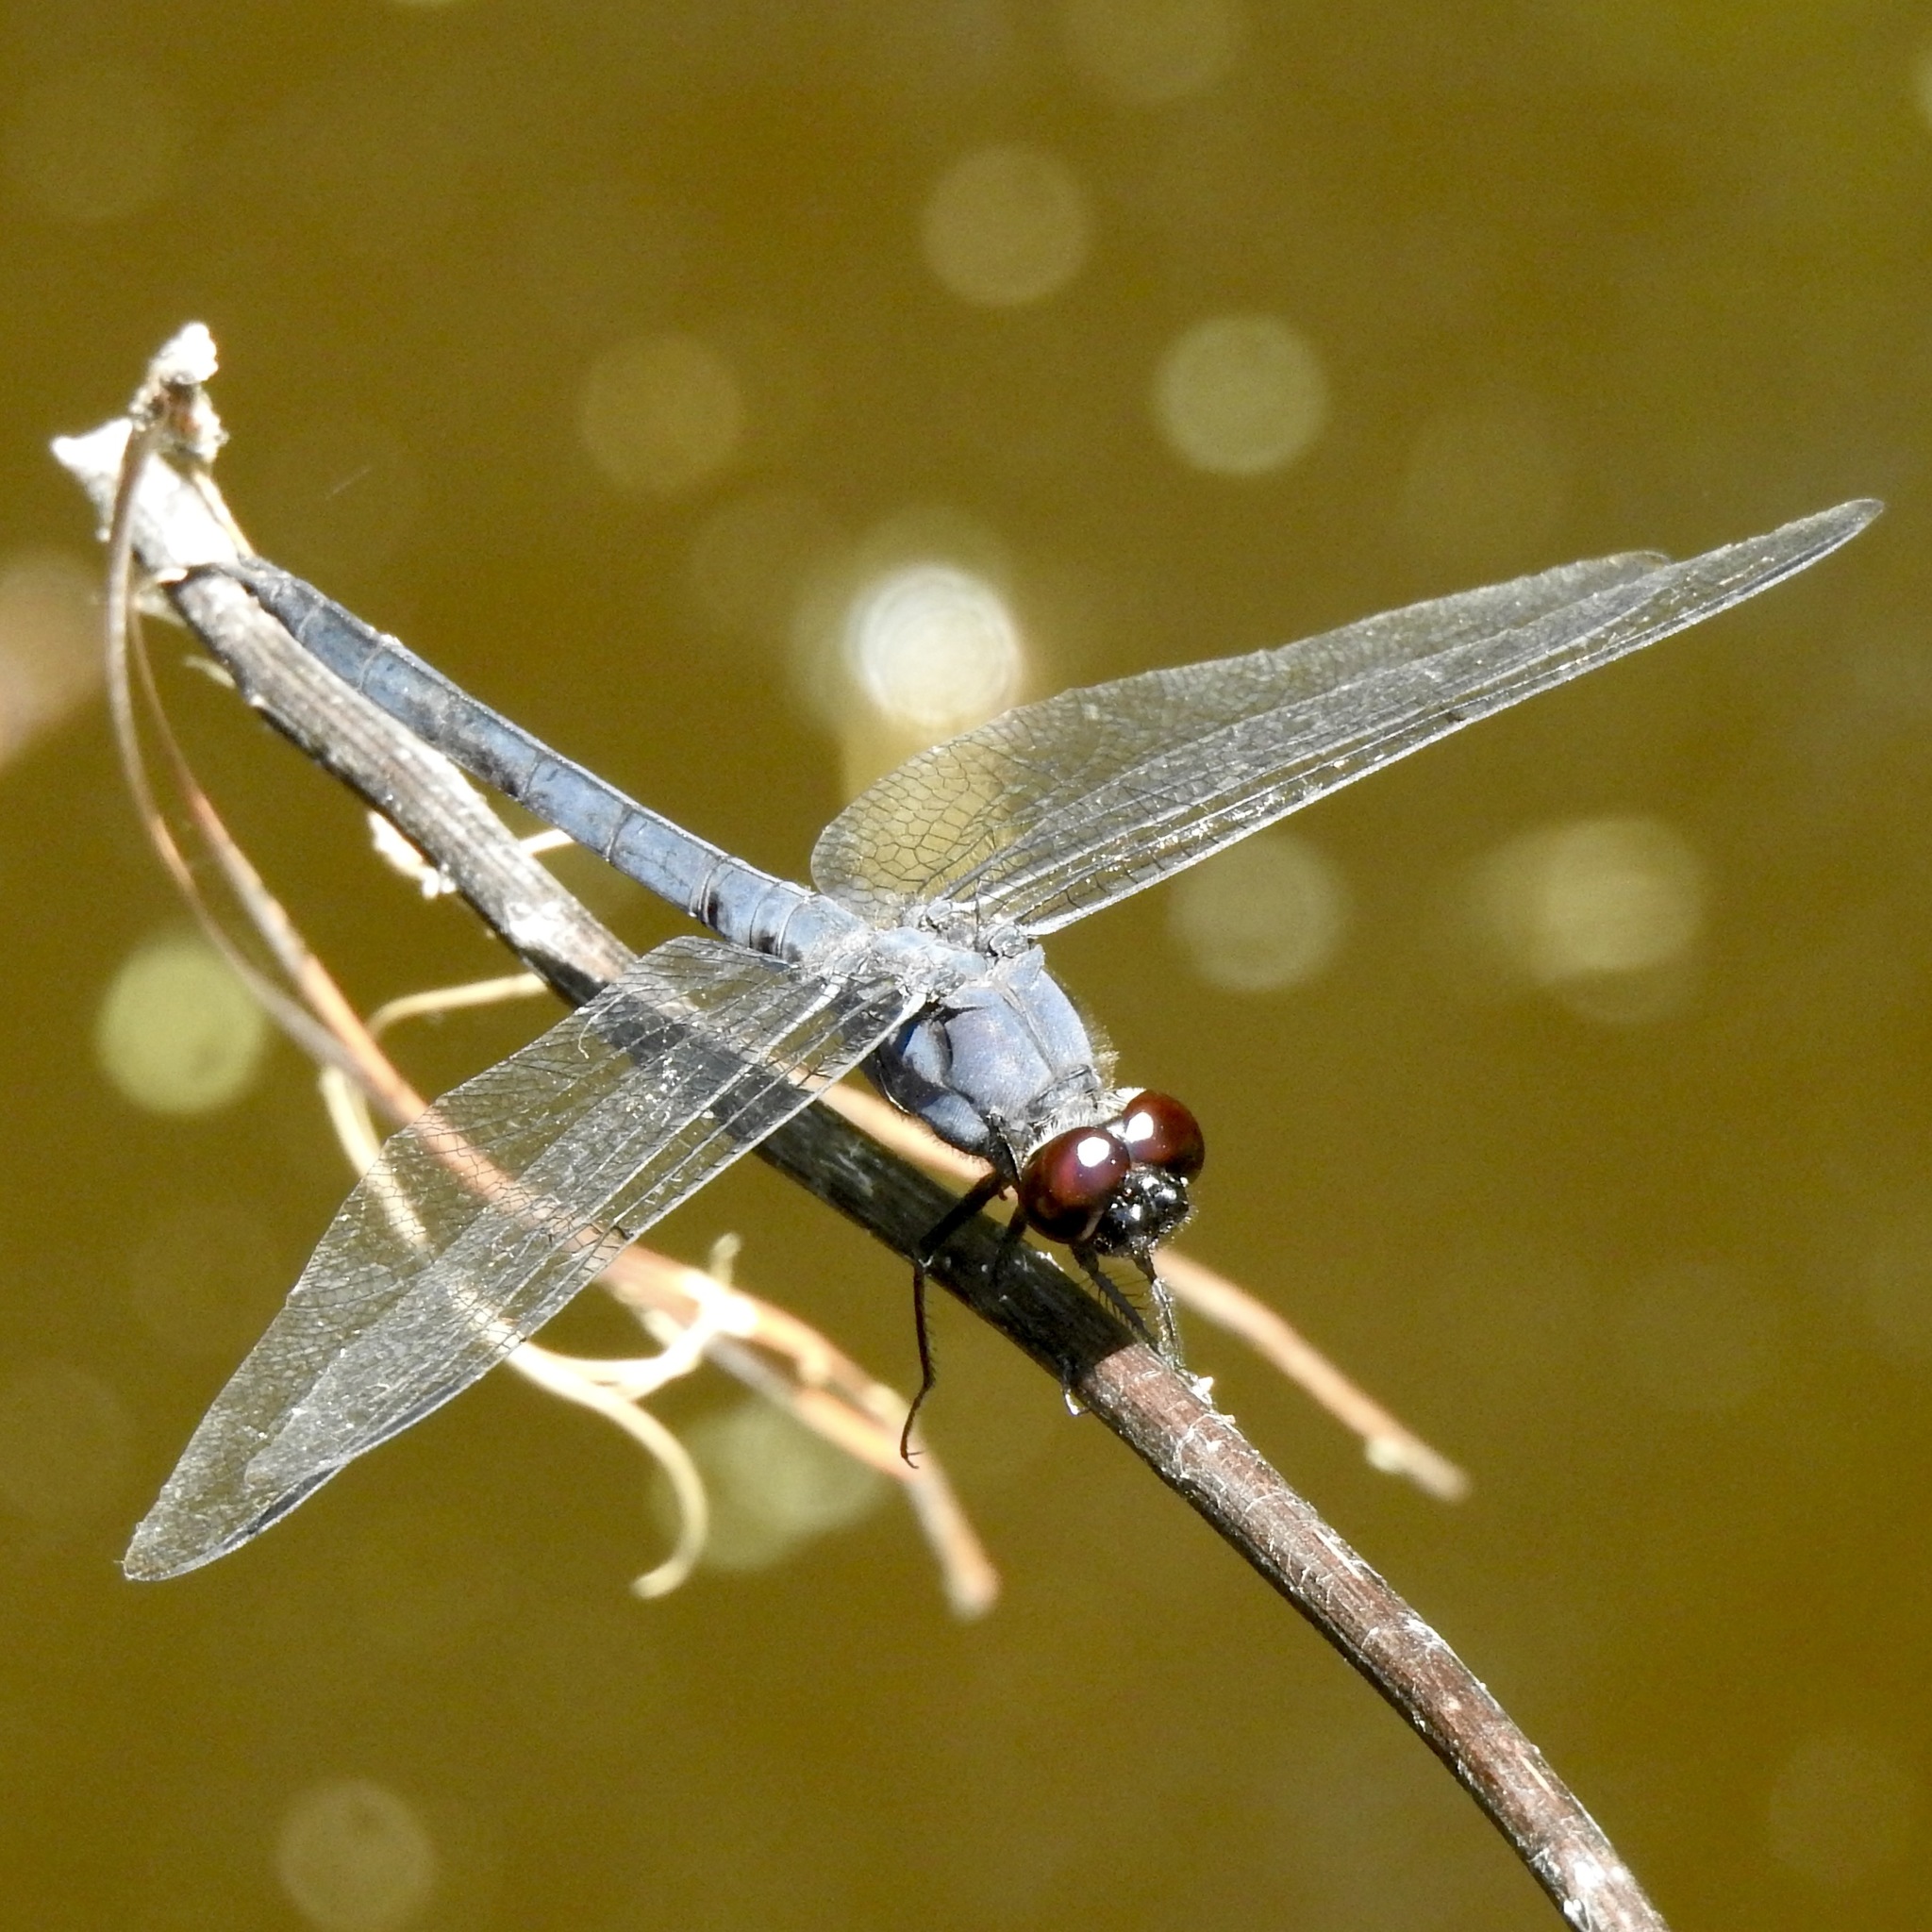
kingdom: Animalia
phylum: Arthropoda
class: Insecta
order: Odonata
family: Libellulidae
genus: Libellula
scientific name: Libellula incesta
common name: Slaty skimmer
